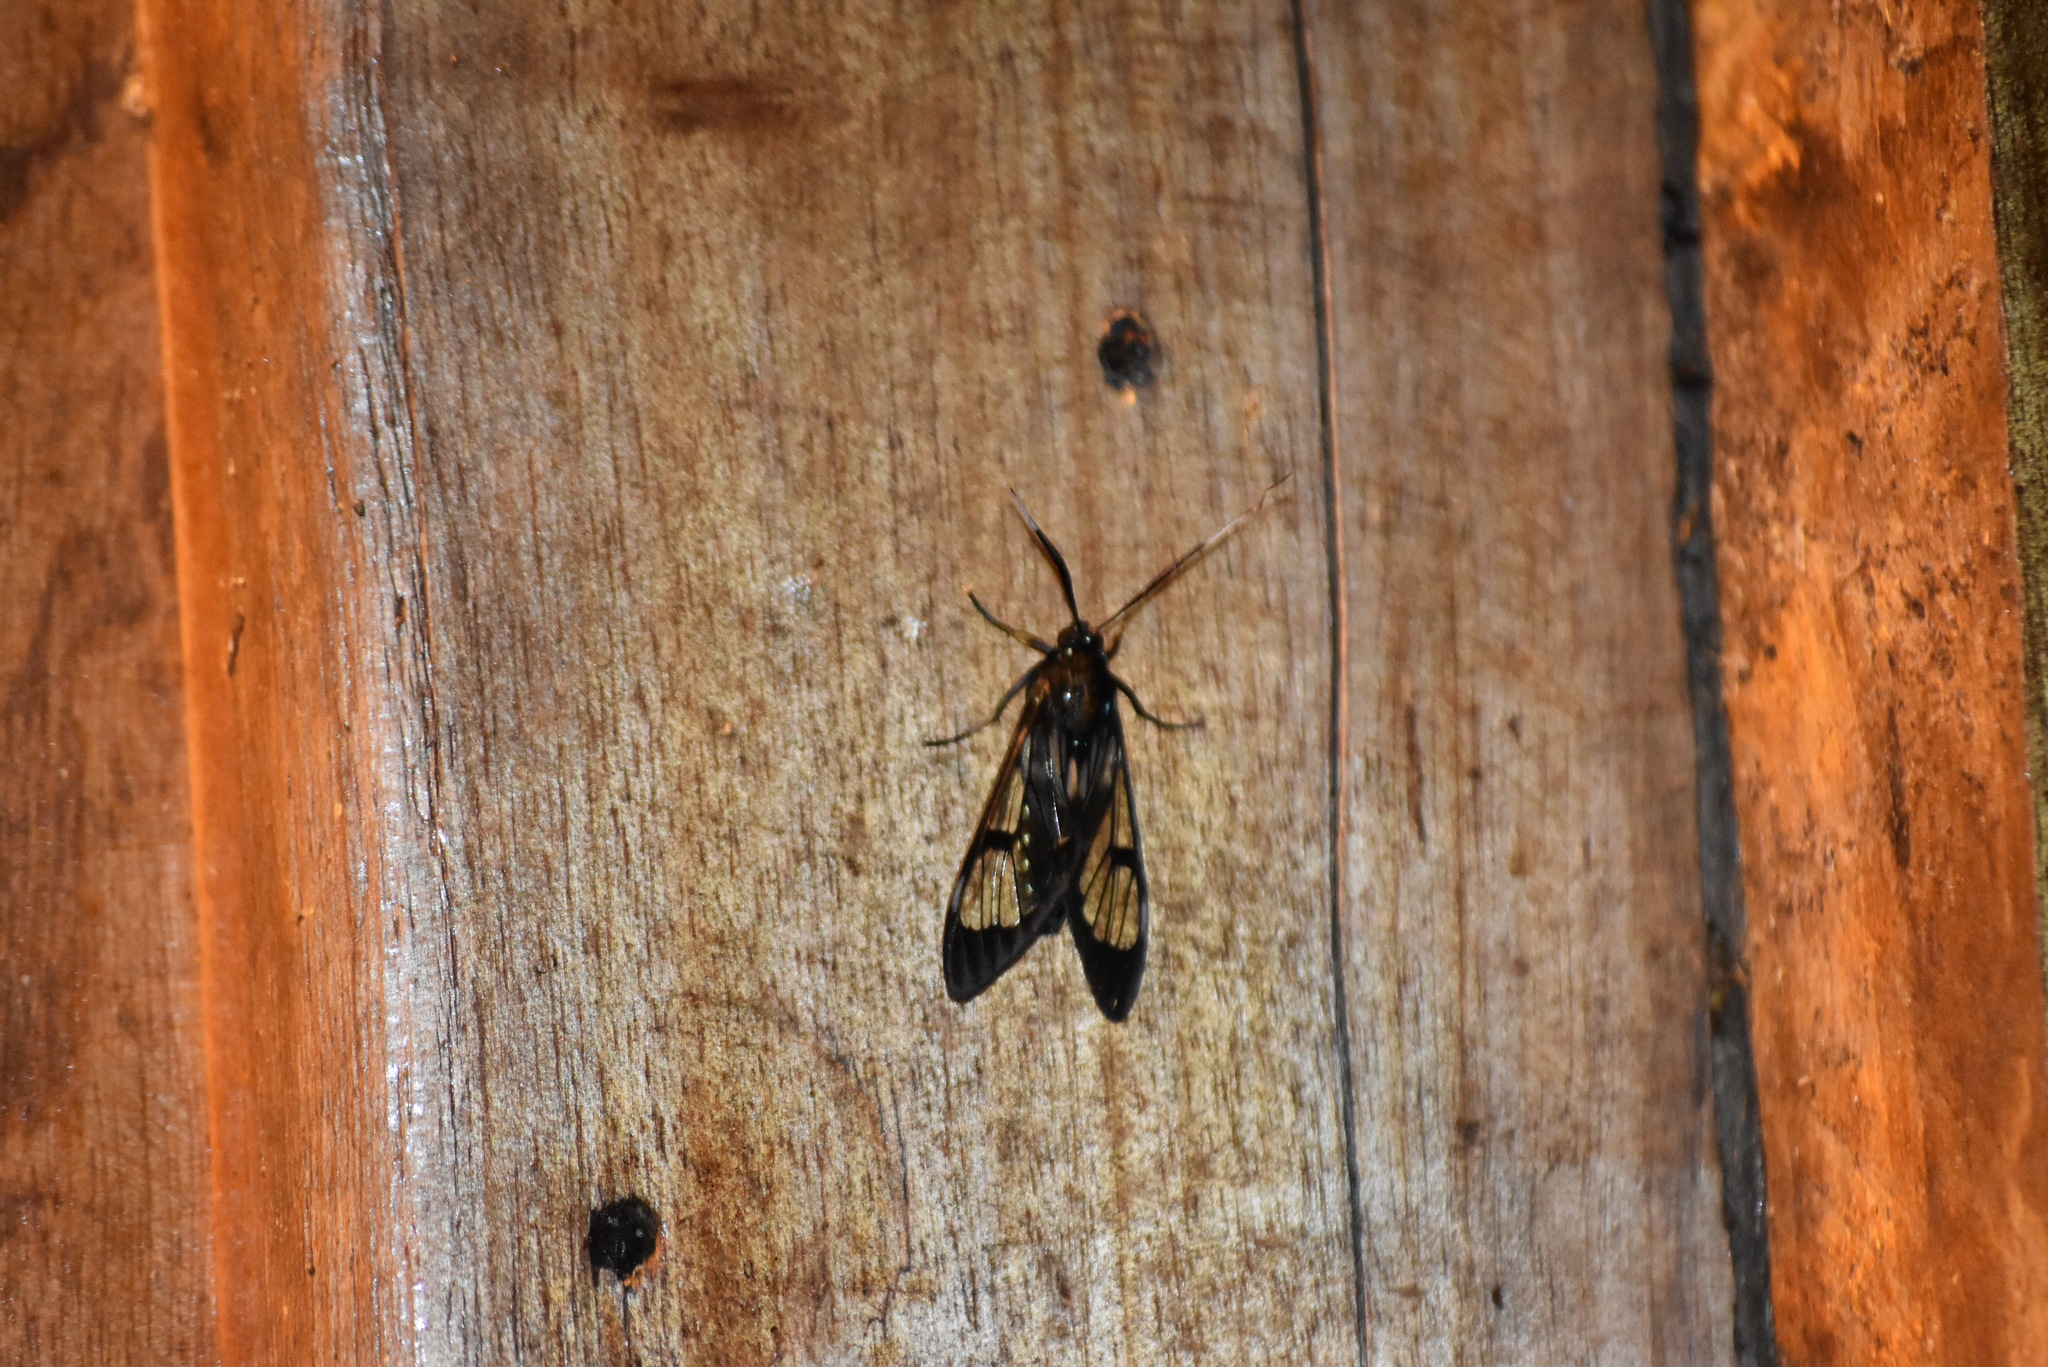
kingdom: Animalia
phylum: Arthropoda
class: Insecta
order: Lepidoptera
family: Erebidae
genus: Neotrichura
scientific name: Neotrichura nigripes
